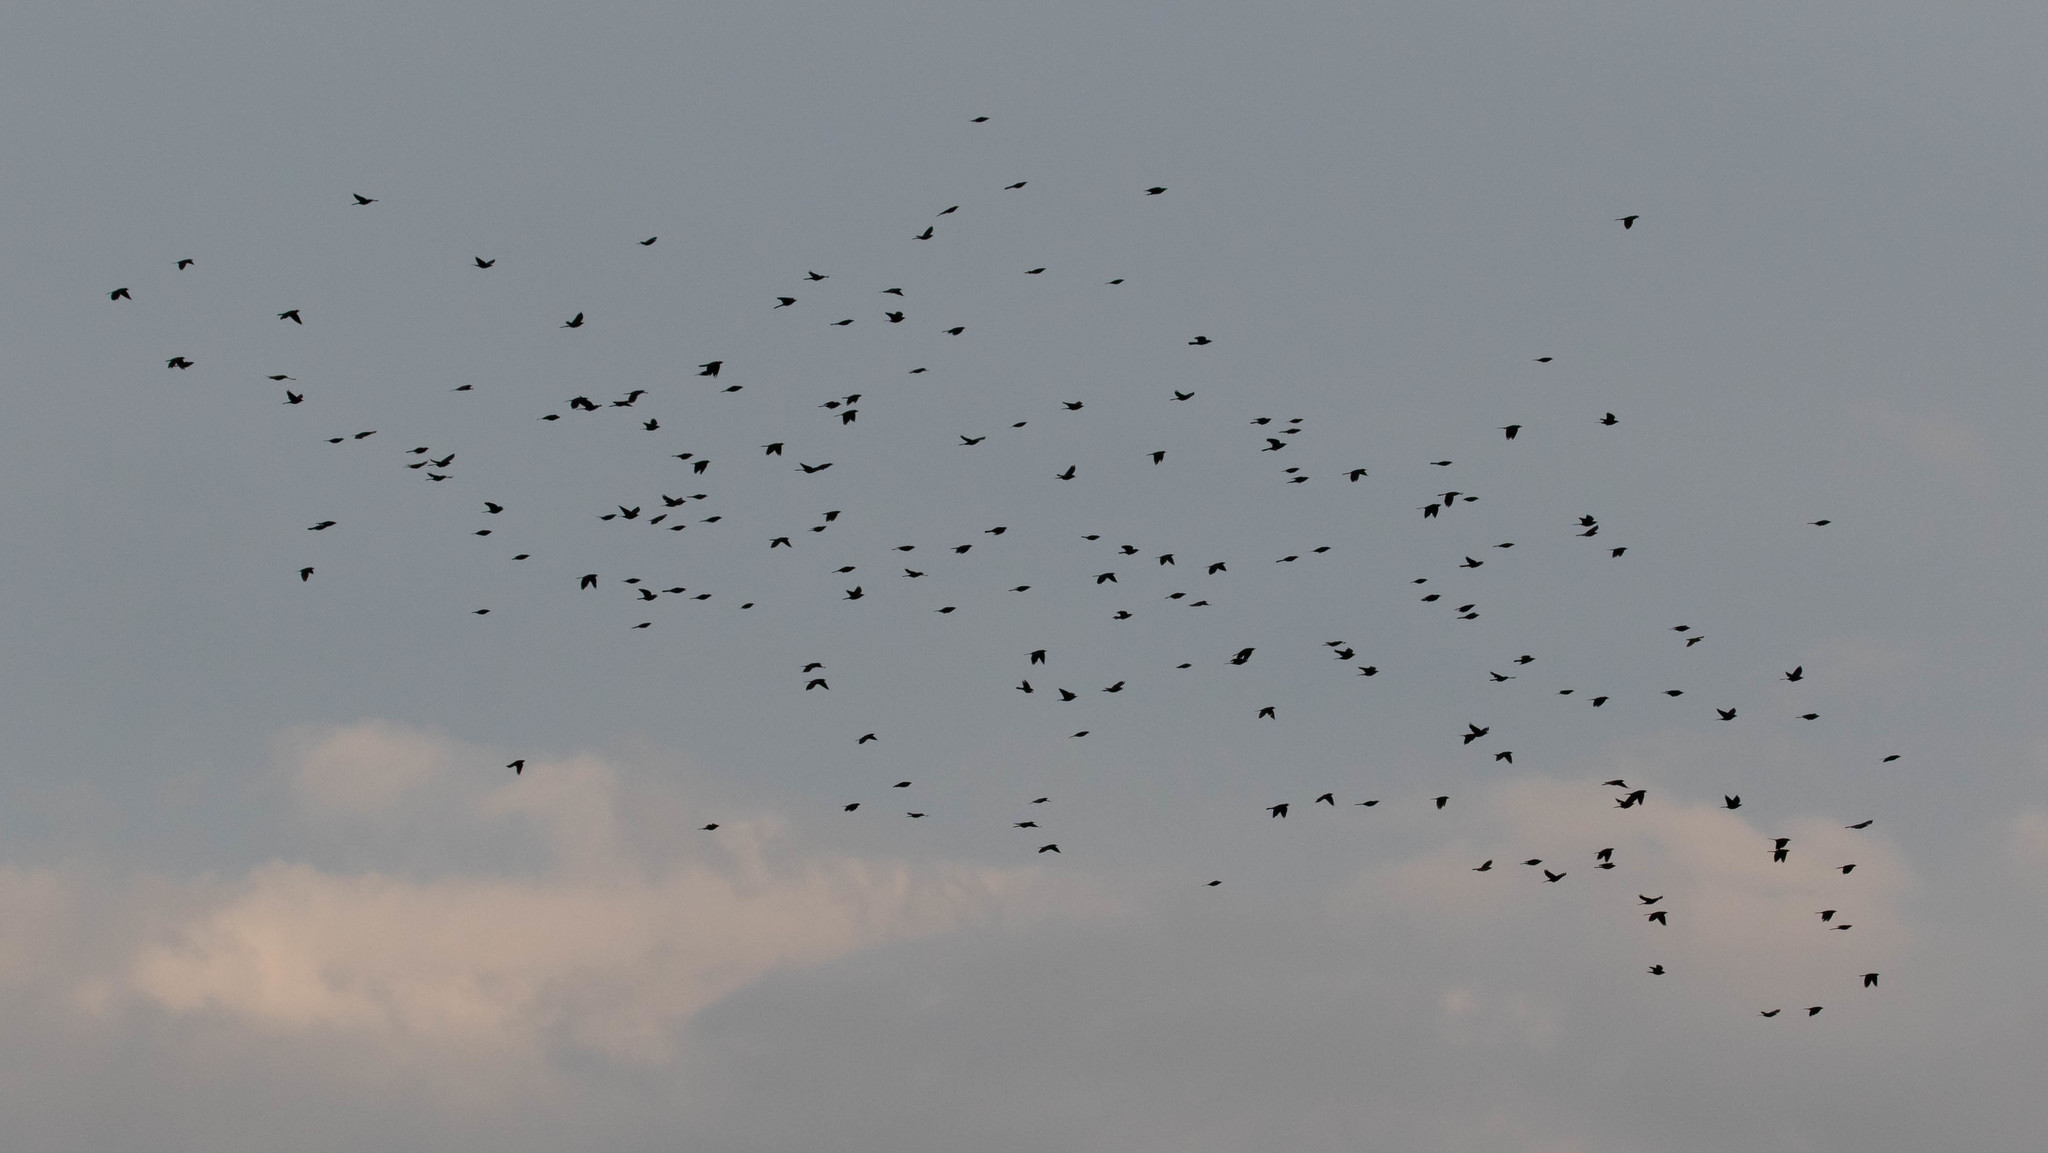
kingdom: Animalia
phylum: Chordata
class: Aves
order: Passeriformes
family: Icteridae
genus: Quiscalus
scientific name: Quiscalus quiscula
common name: Common grackle
